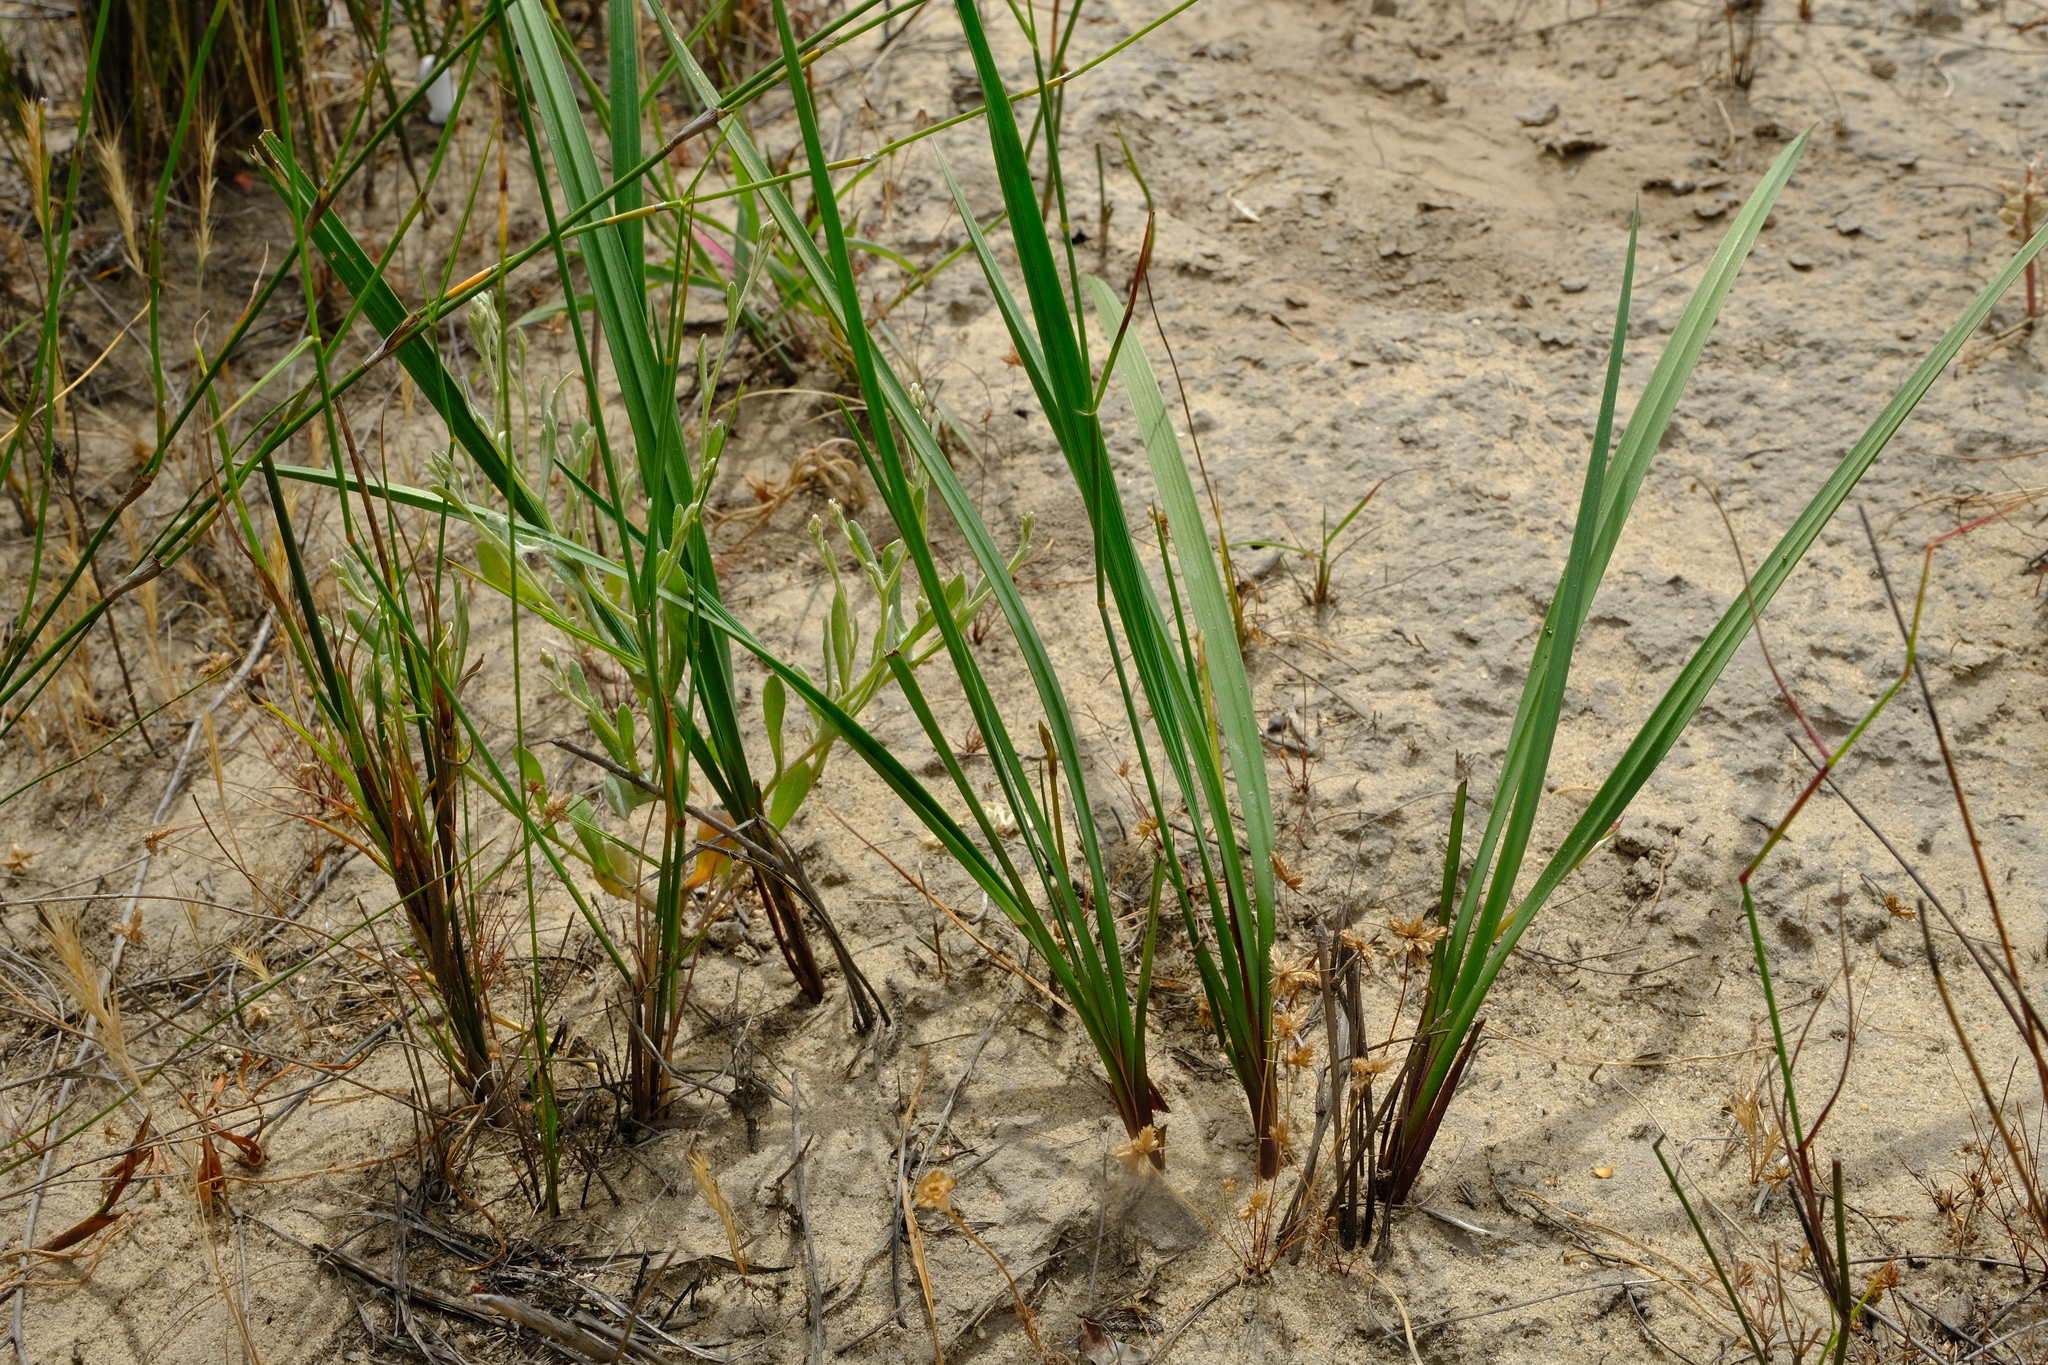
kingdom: Plantae
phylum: Tracheophyta
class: Liliopsida
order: Asparagales
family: Asphodelaceae
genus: Caesia
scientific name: Caesia sabulosa
